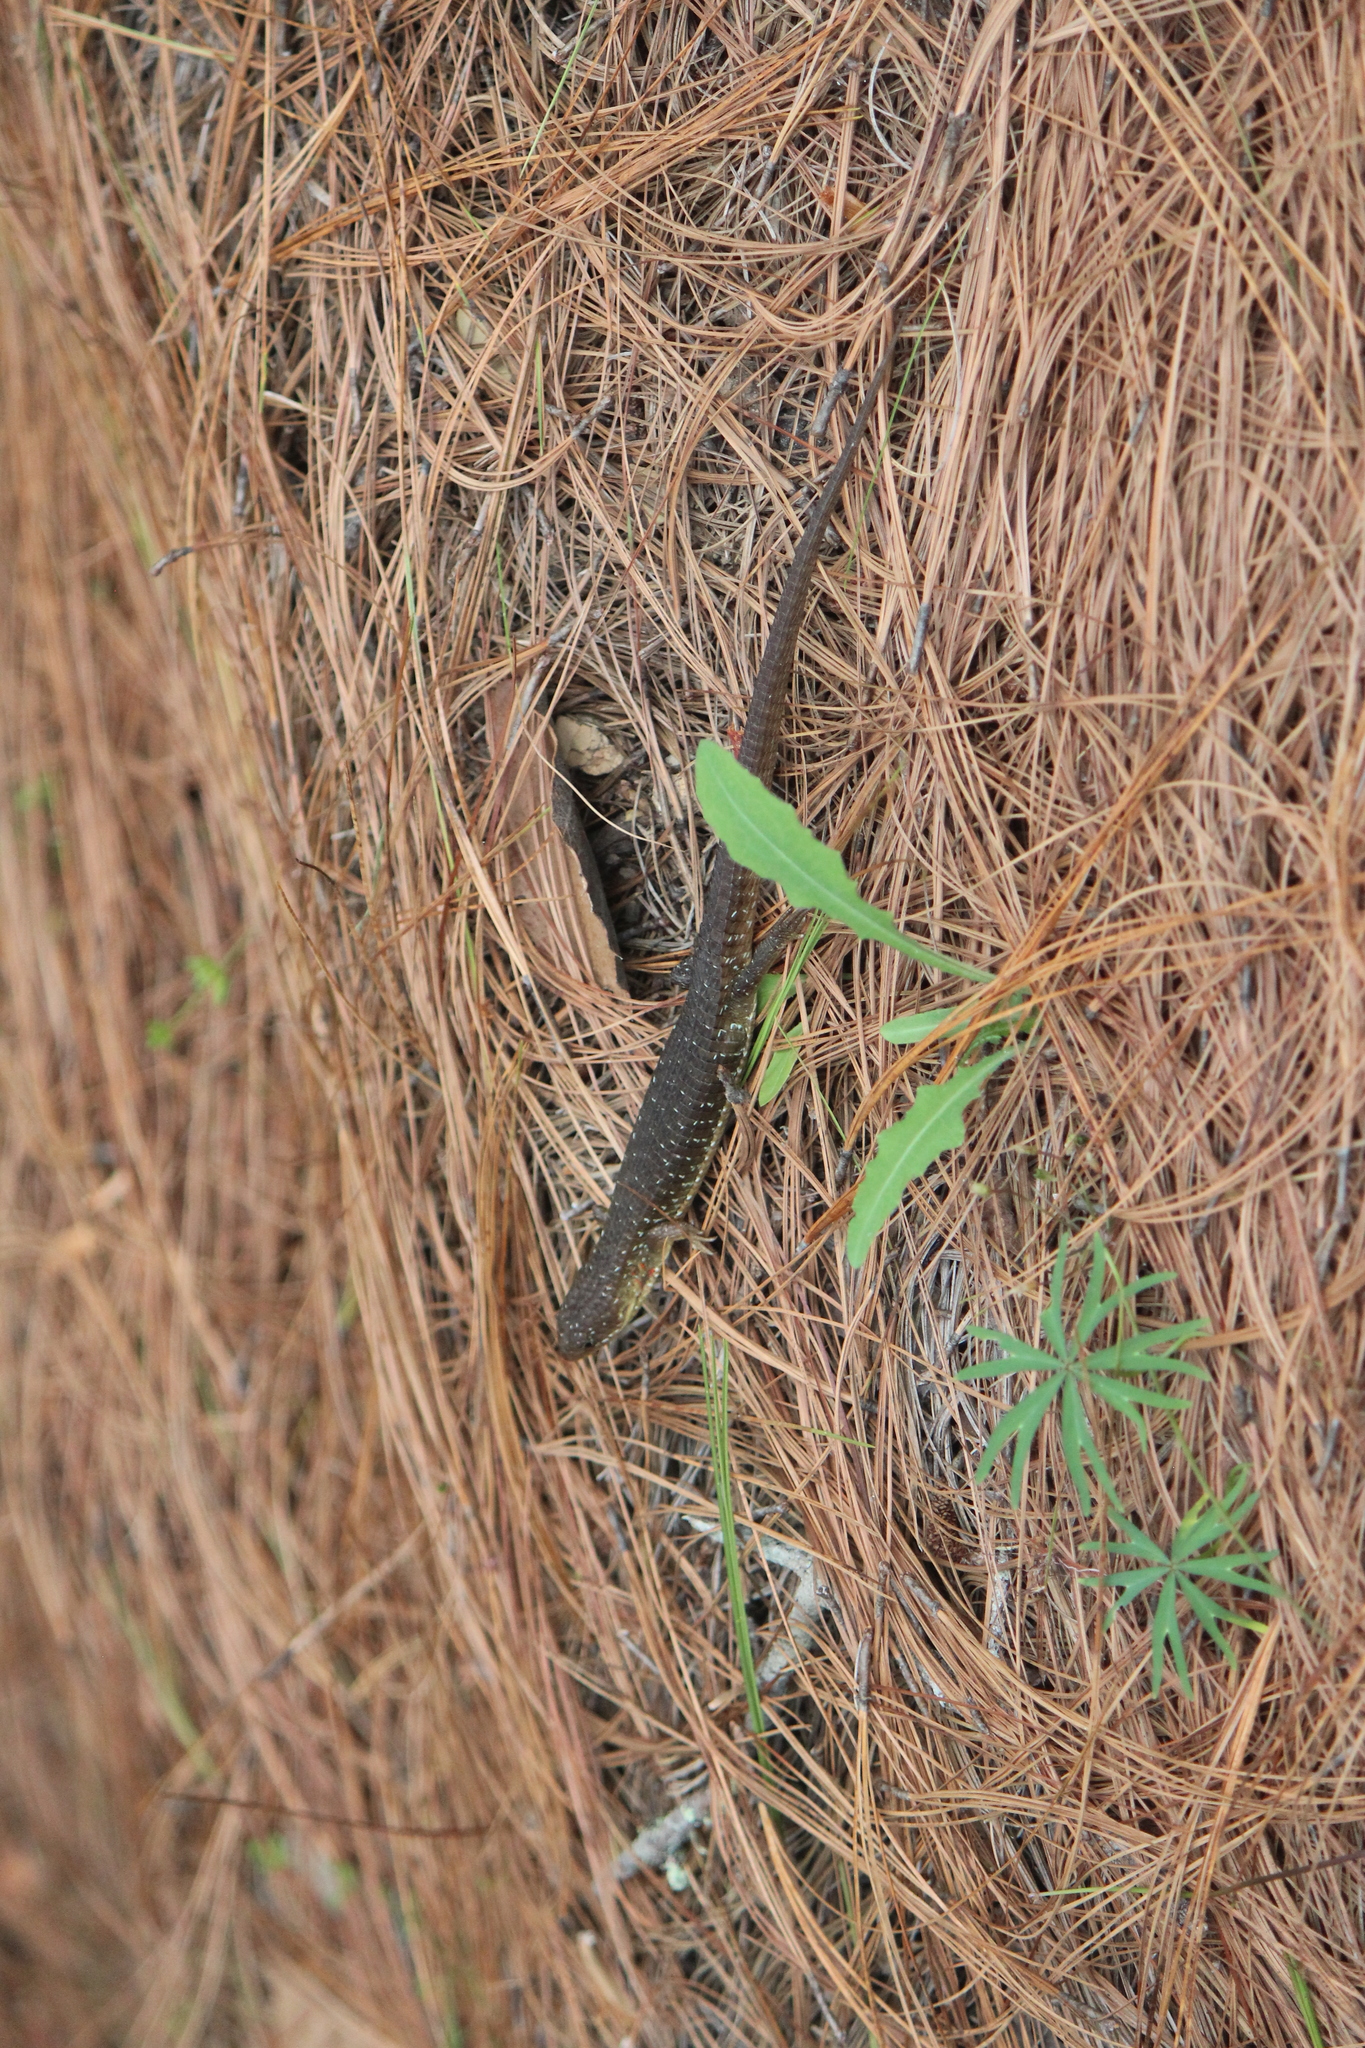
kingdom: Animalia
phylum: Chordata
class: Squamata
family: Anguidae
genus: Barisia
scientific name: Barisia ciliaris
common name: Imbricate alligator lizard
